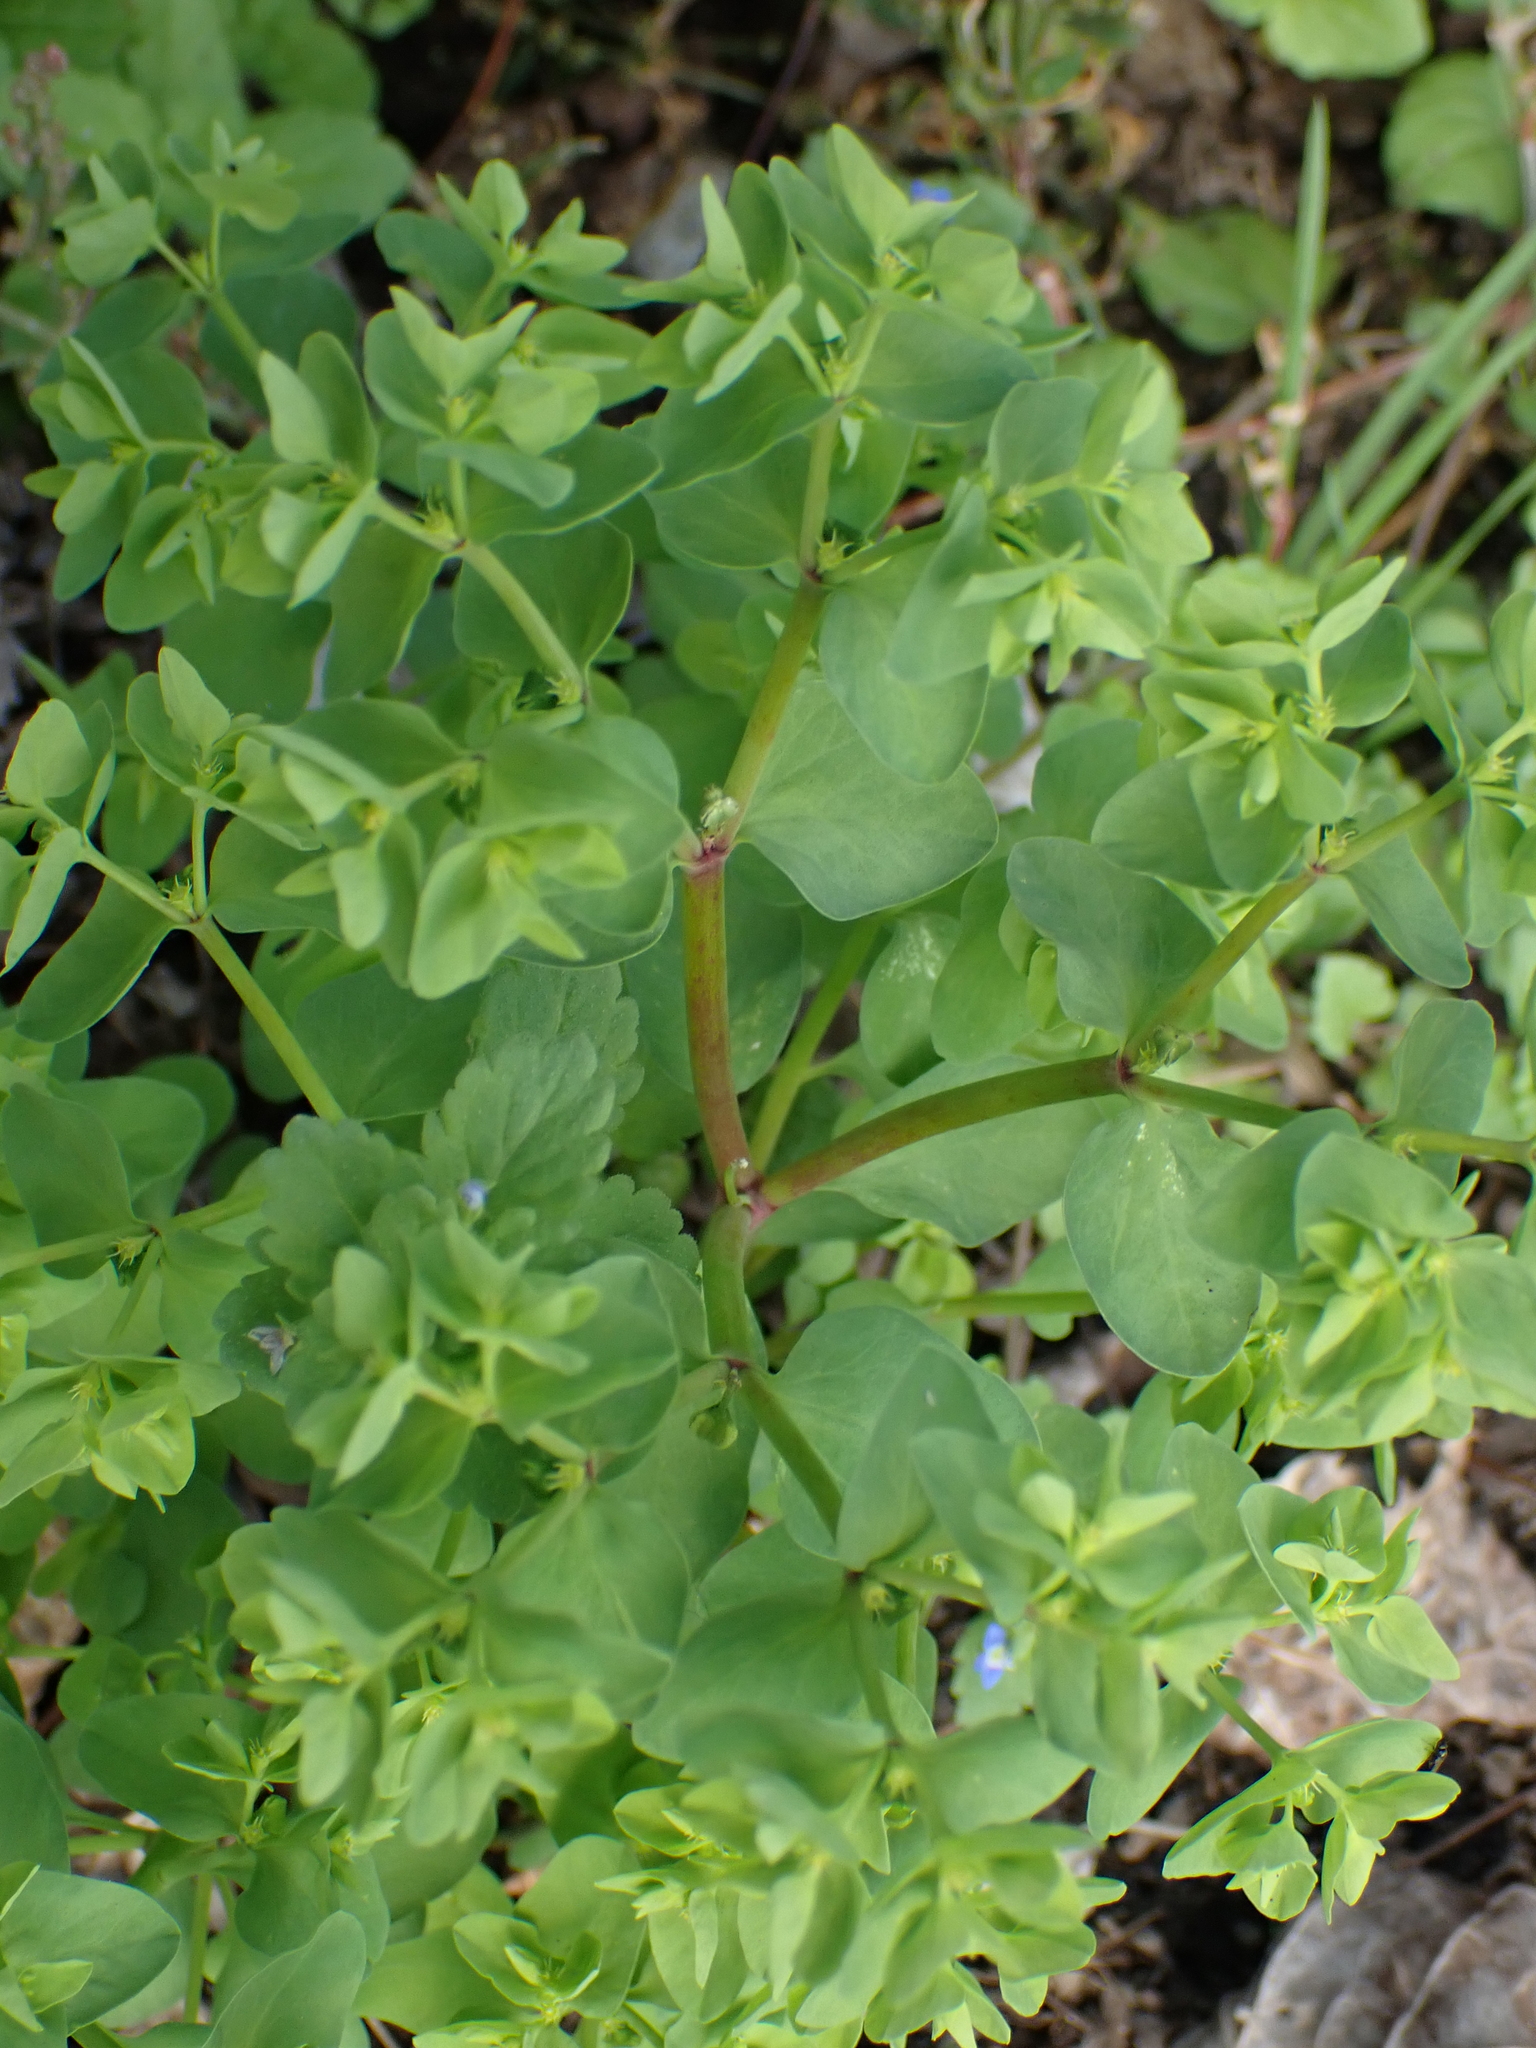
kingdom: Plantae
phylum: Tracheophyta
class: Magnoliopsida
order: Malpighiales
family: Euphorbiaceae
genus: Euphorbia
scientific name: Euphorbia peplus
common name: Petty spurge
